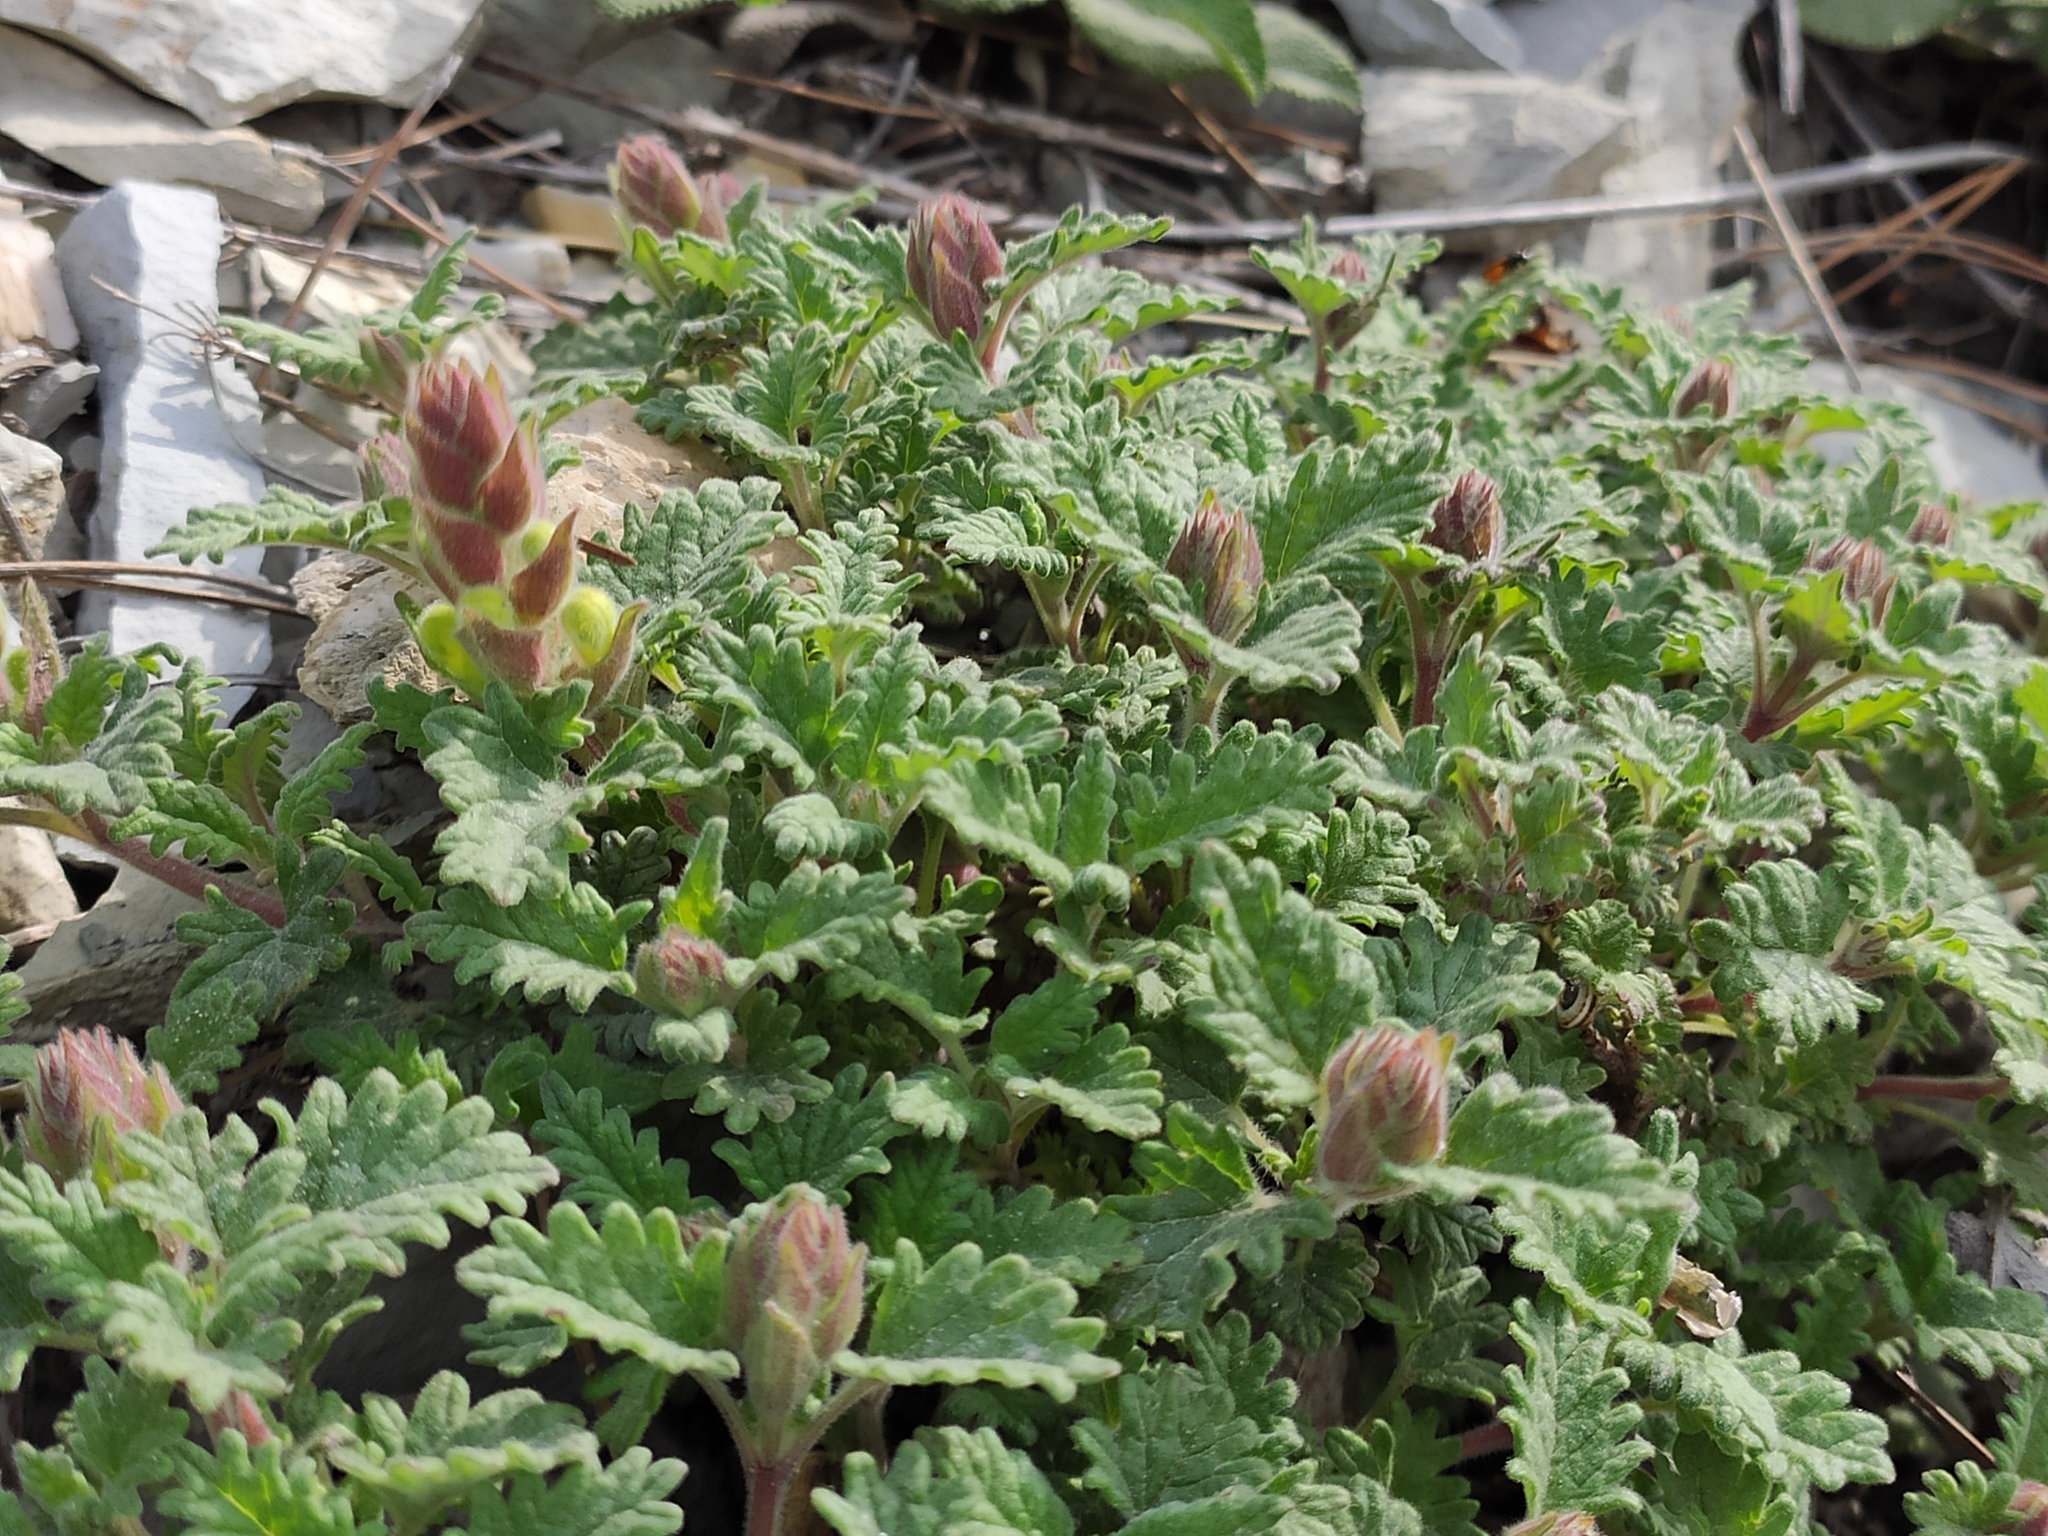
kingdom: Plantae
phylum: Tracheophyta
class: Magnoliopsida
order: Lamiales
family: Lamiaceae
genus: Scutellaria
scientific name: Scutellaria orientalis
